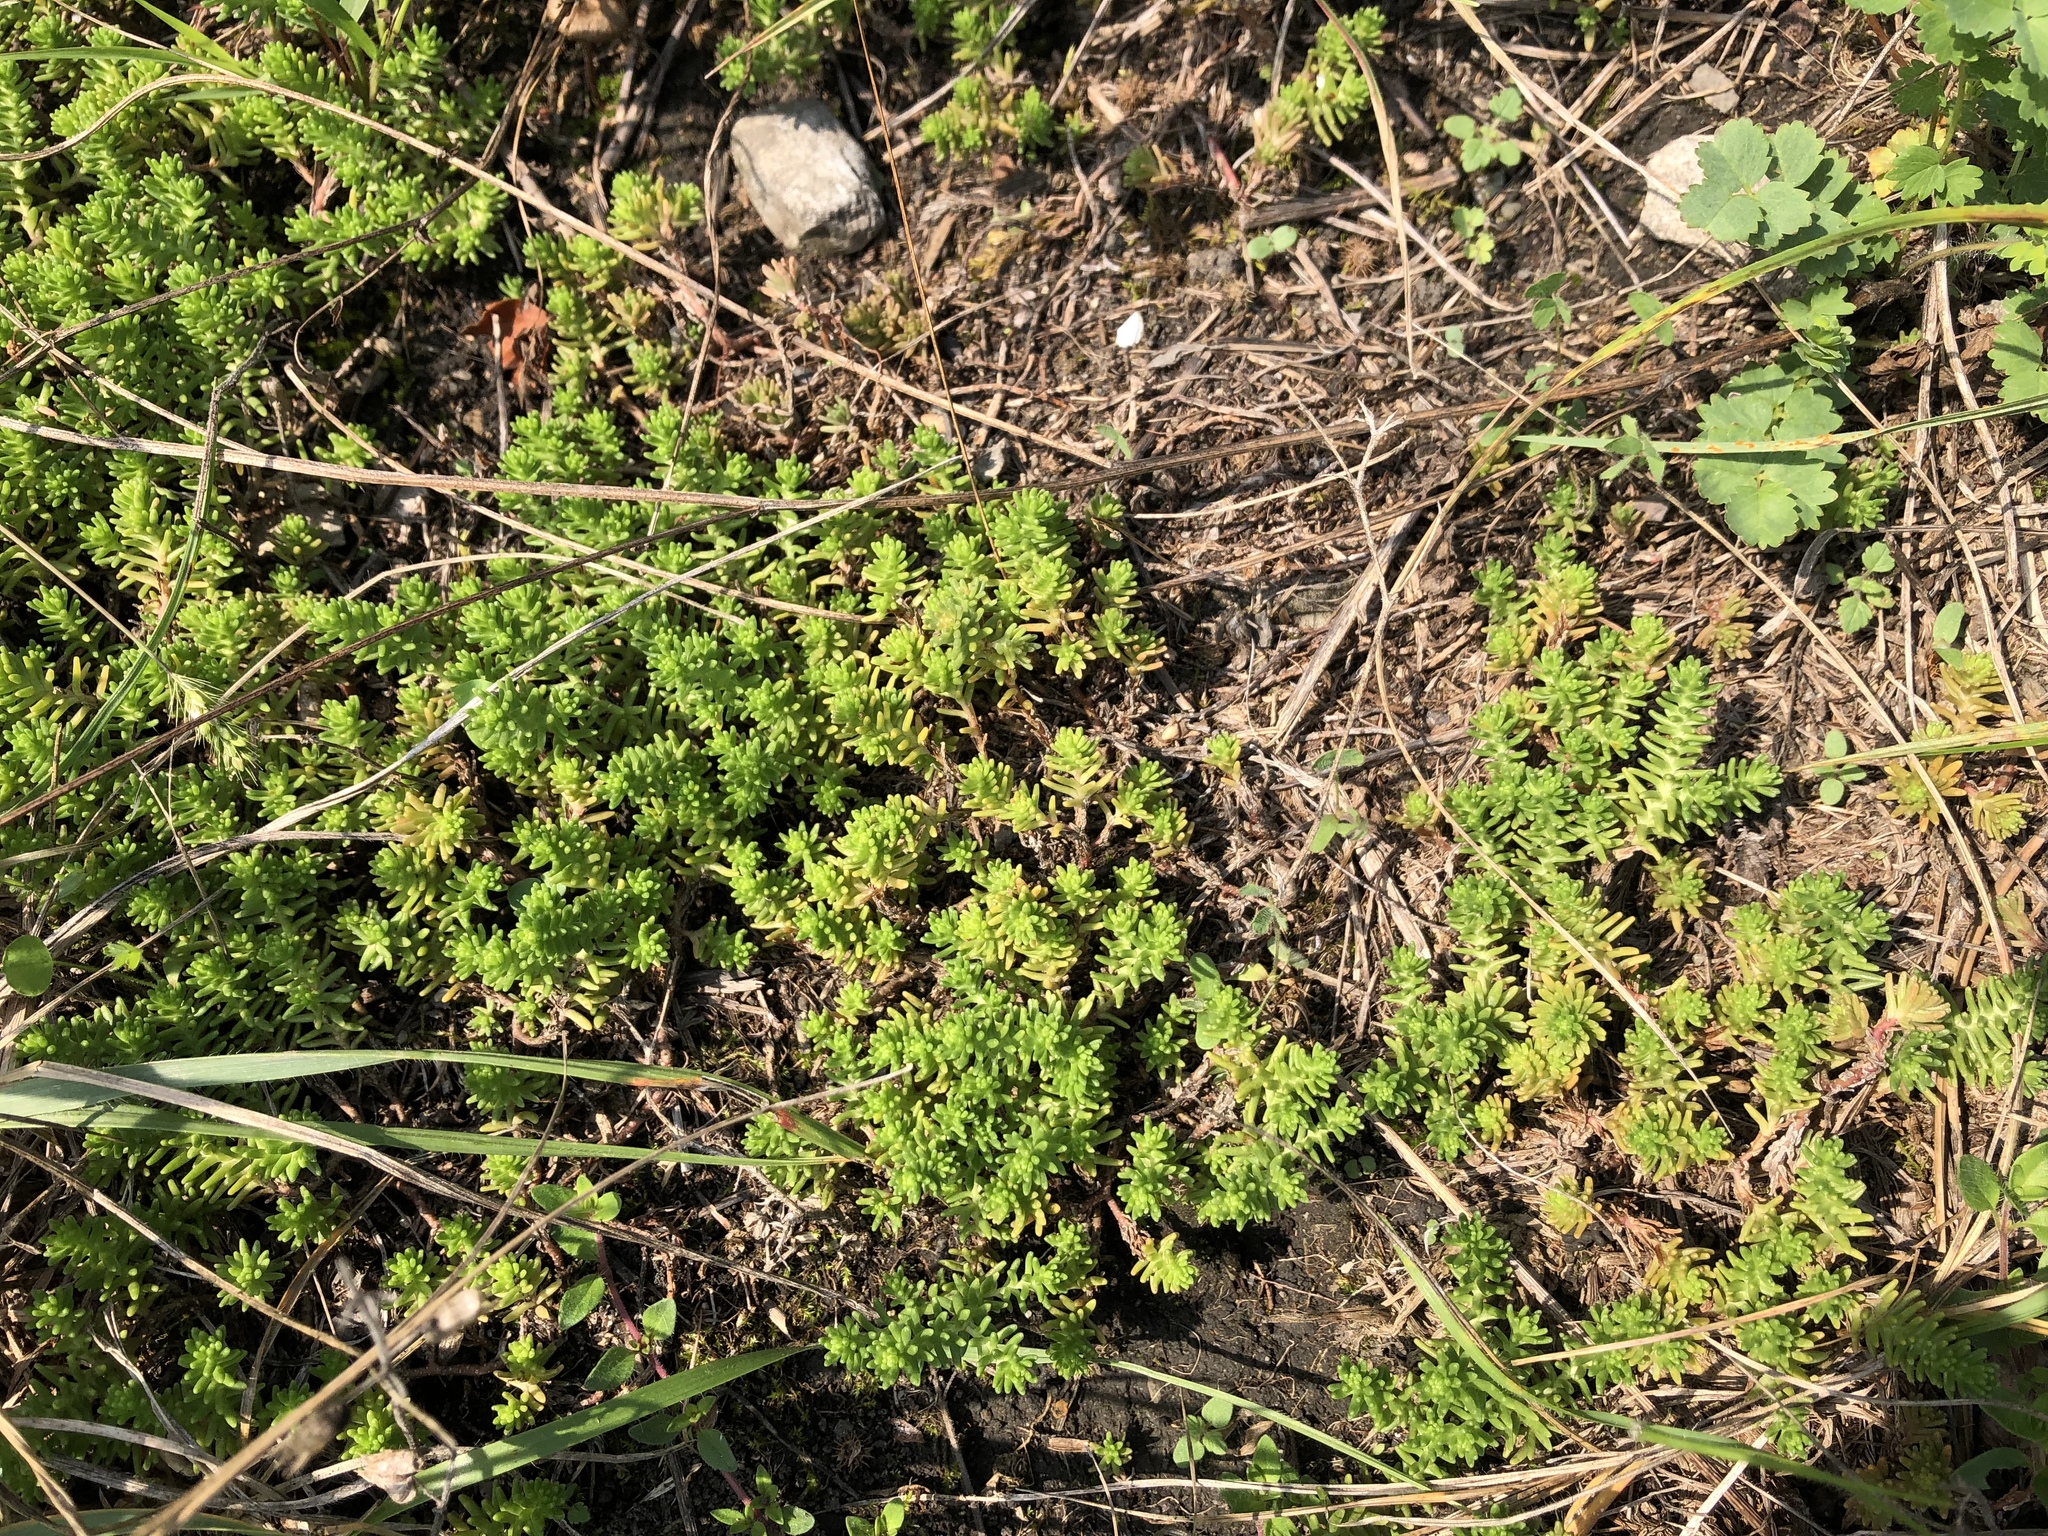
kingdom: Plantae
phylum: Tracheophyta
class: Magnoliopsida
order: Saxifragales
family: Crassulaceae
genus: Sedum
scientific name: Sedum sexangulare
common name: Tasteless stonecrop
